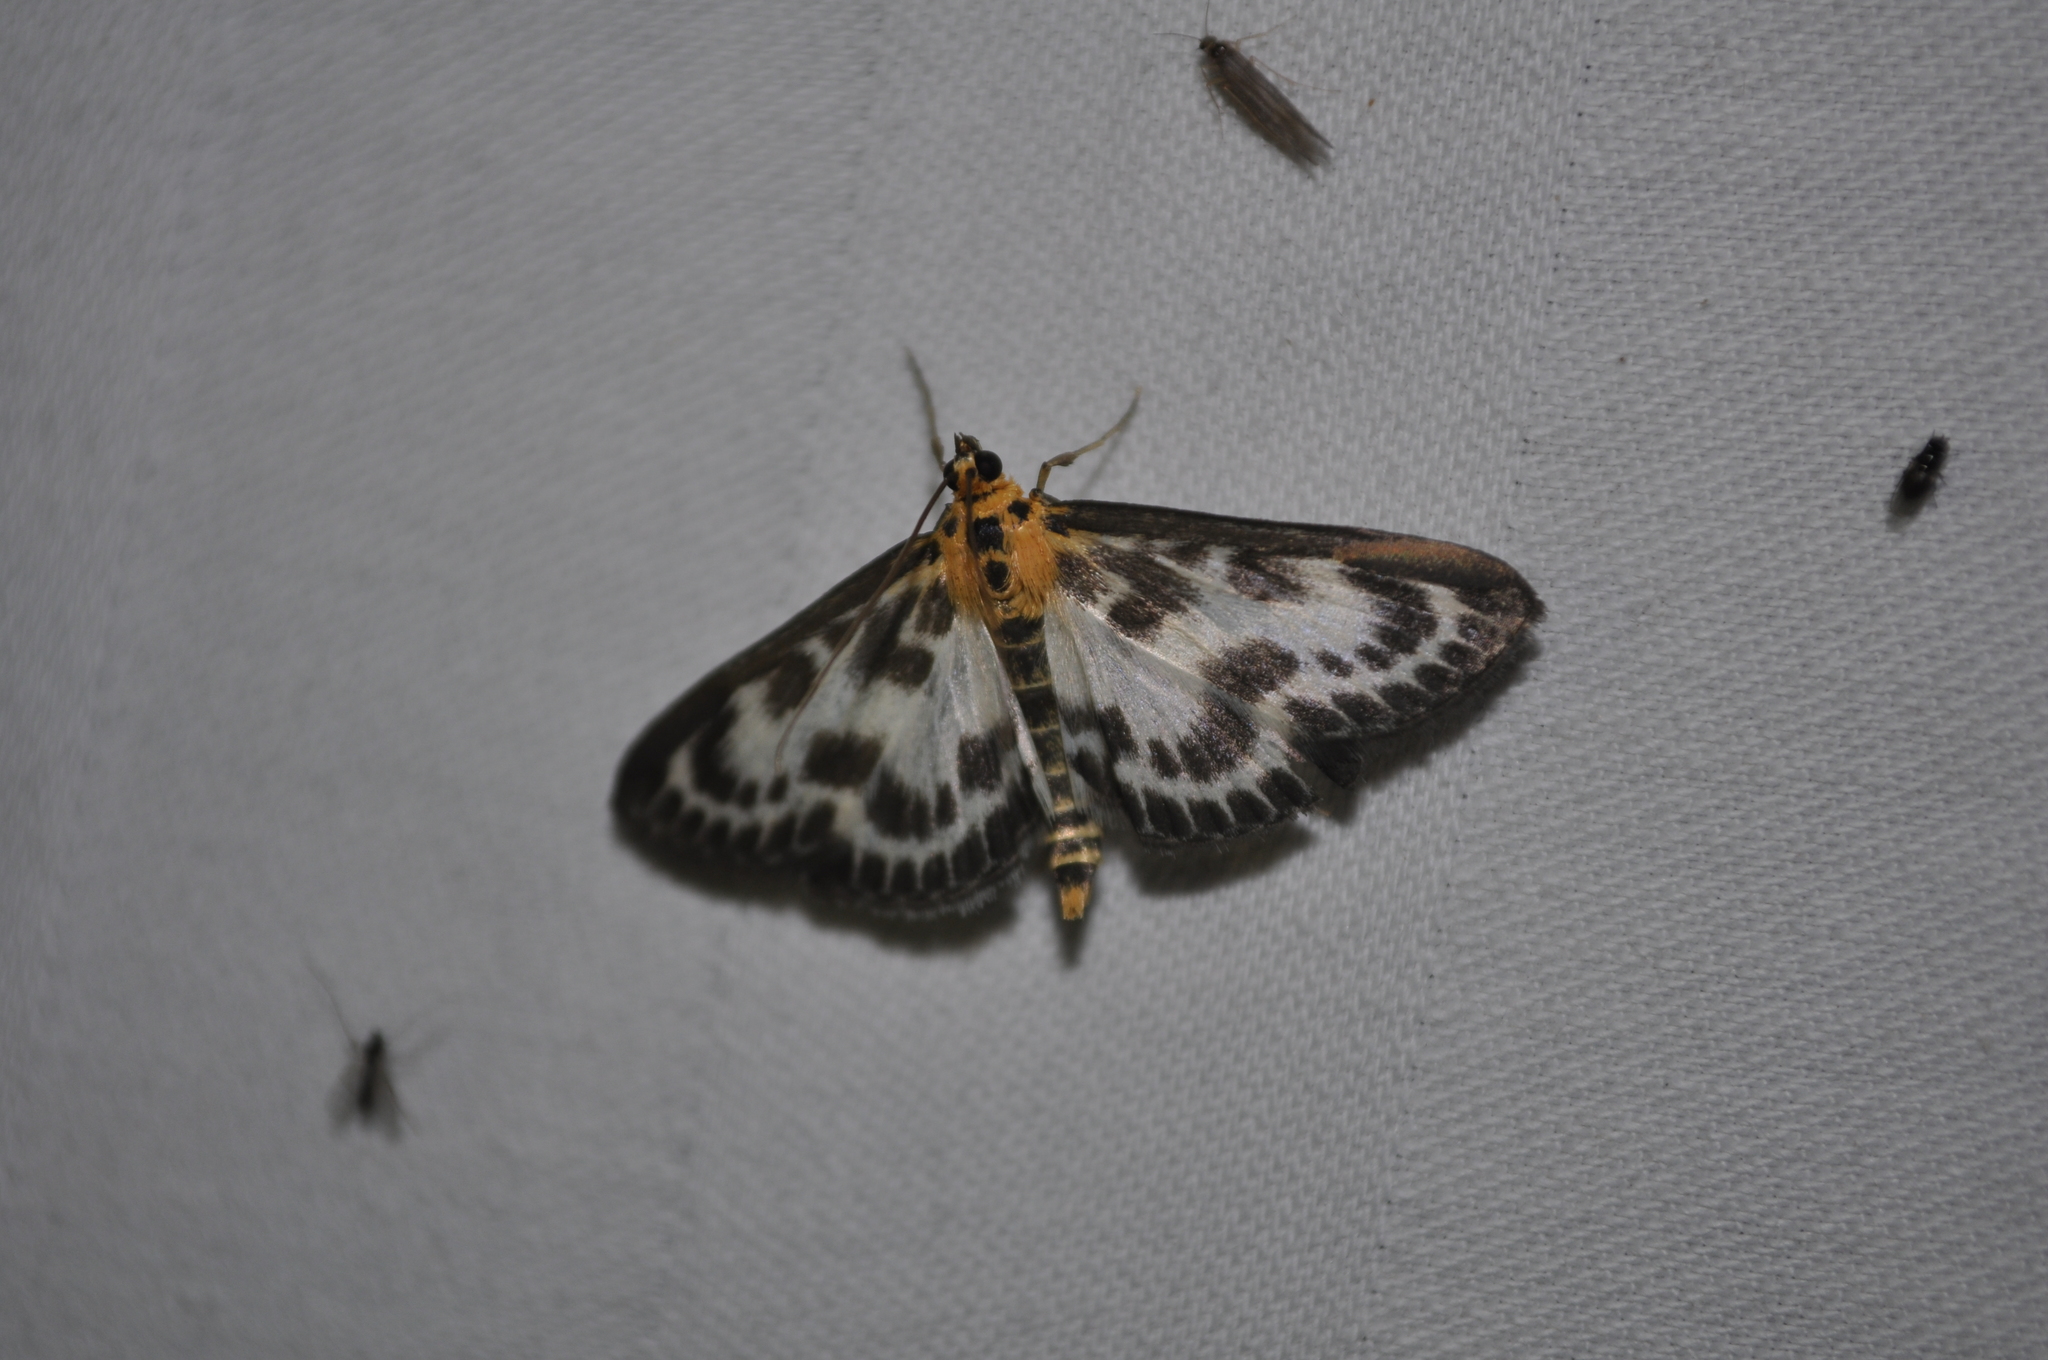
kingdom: Animalia
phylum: Arthropoda
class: Insecta
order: Lepidoptera
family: Crambidae
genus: Anania
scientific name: Anania hortulata
